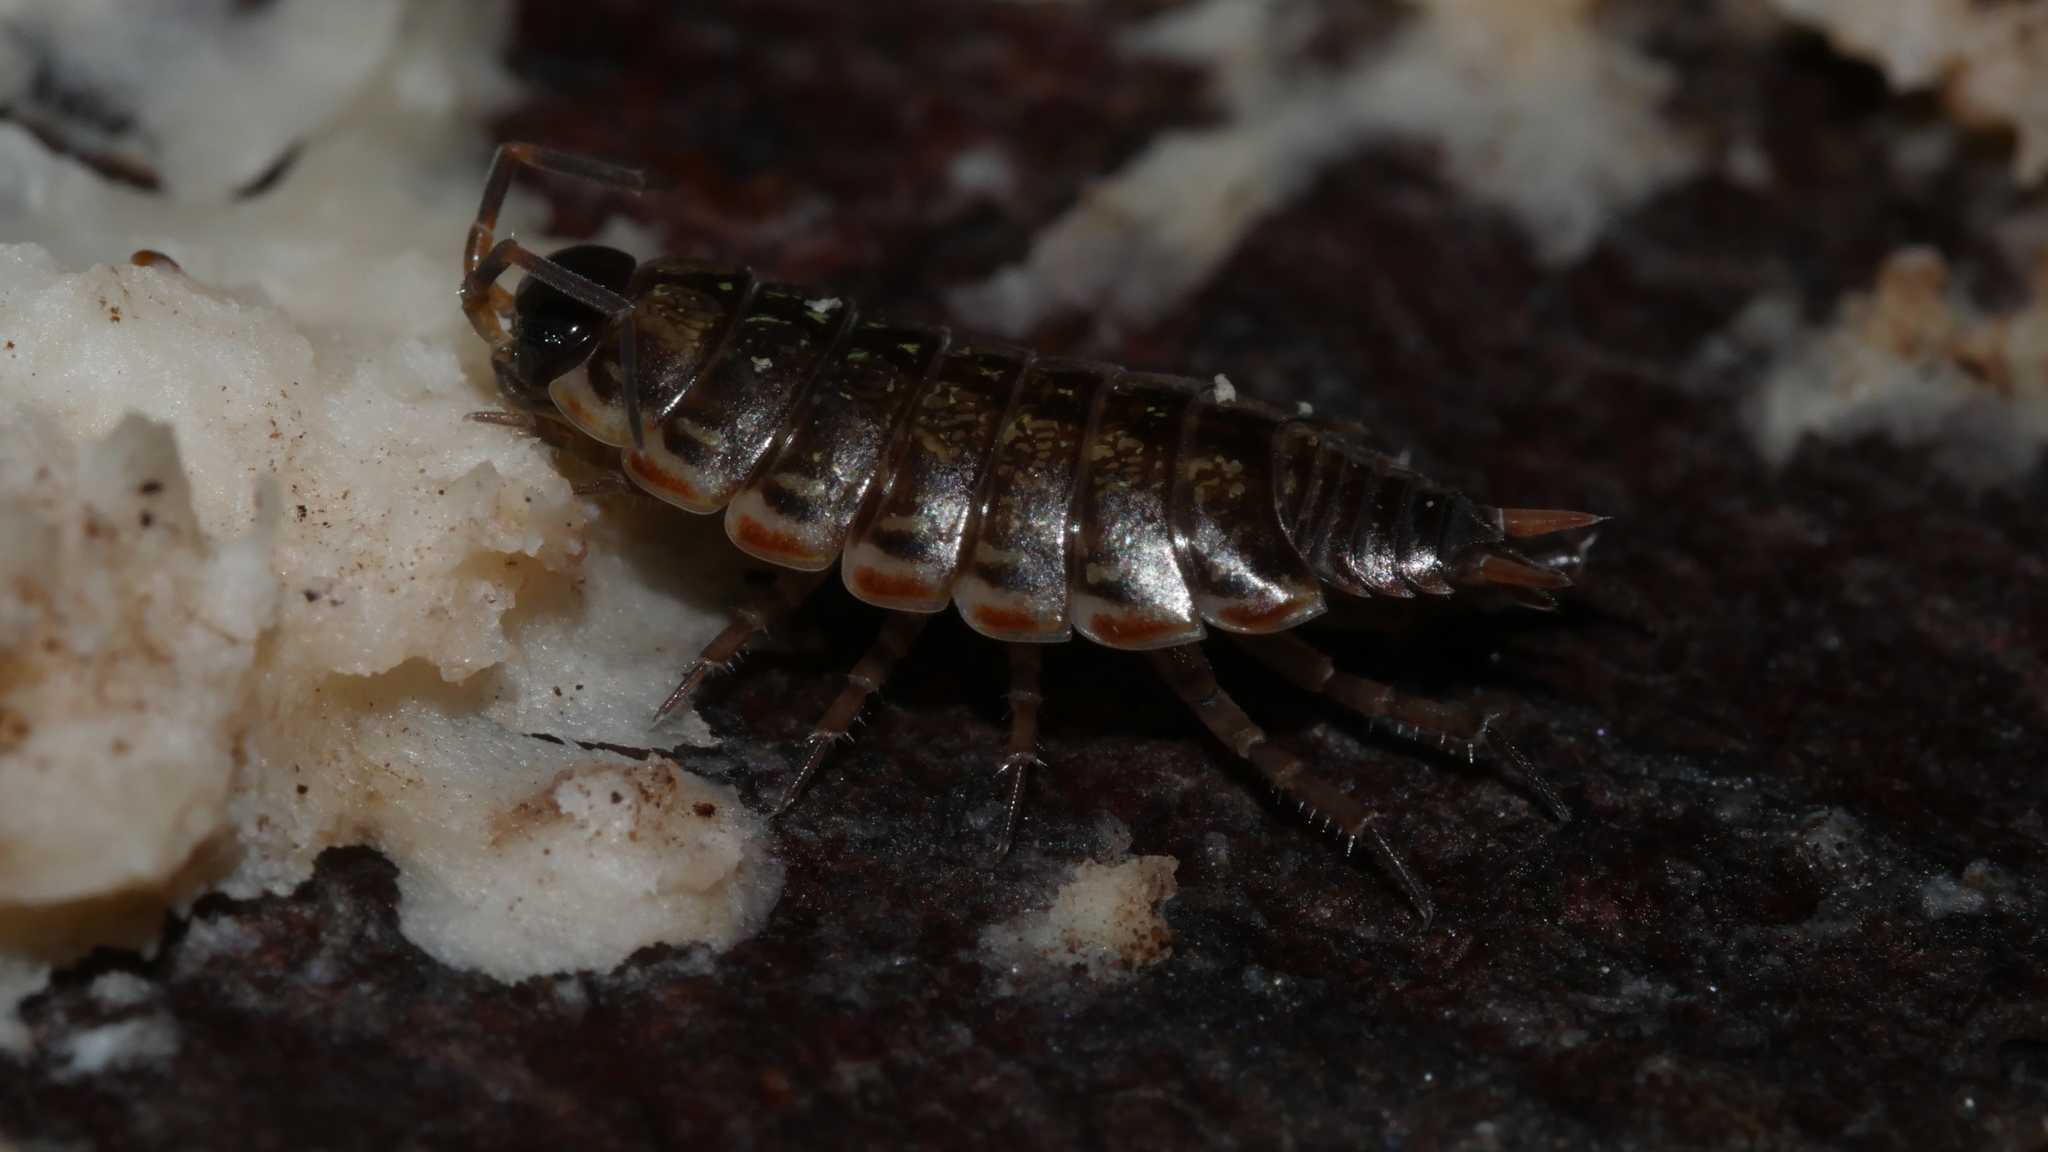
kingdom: Animalia
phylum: Arthropoda
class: Malacostraca
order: Isopoda
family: Philosciidae
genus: Philoscia
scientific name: Philoscia muscorum
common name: Common striped woodlouse
